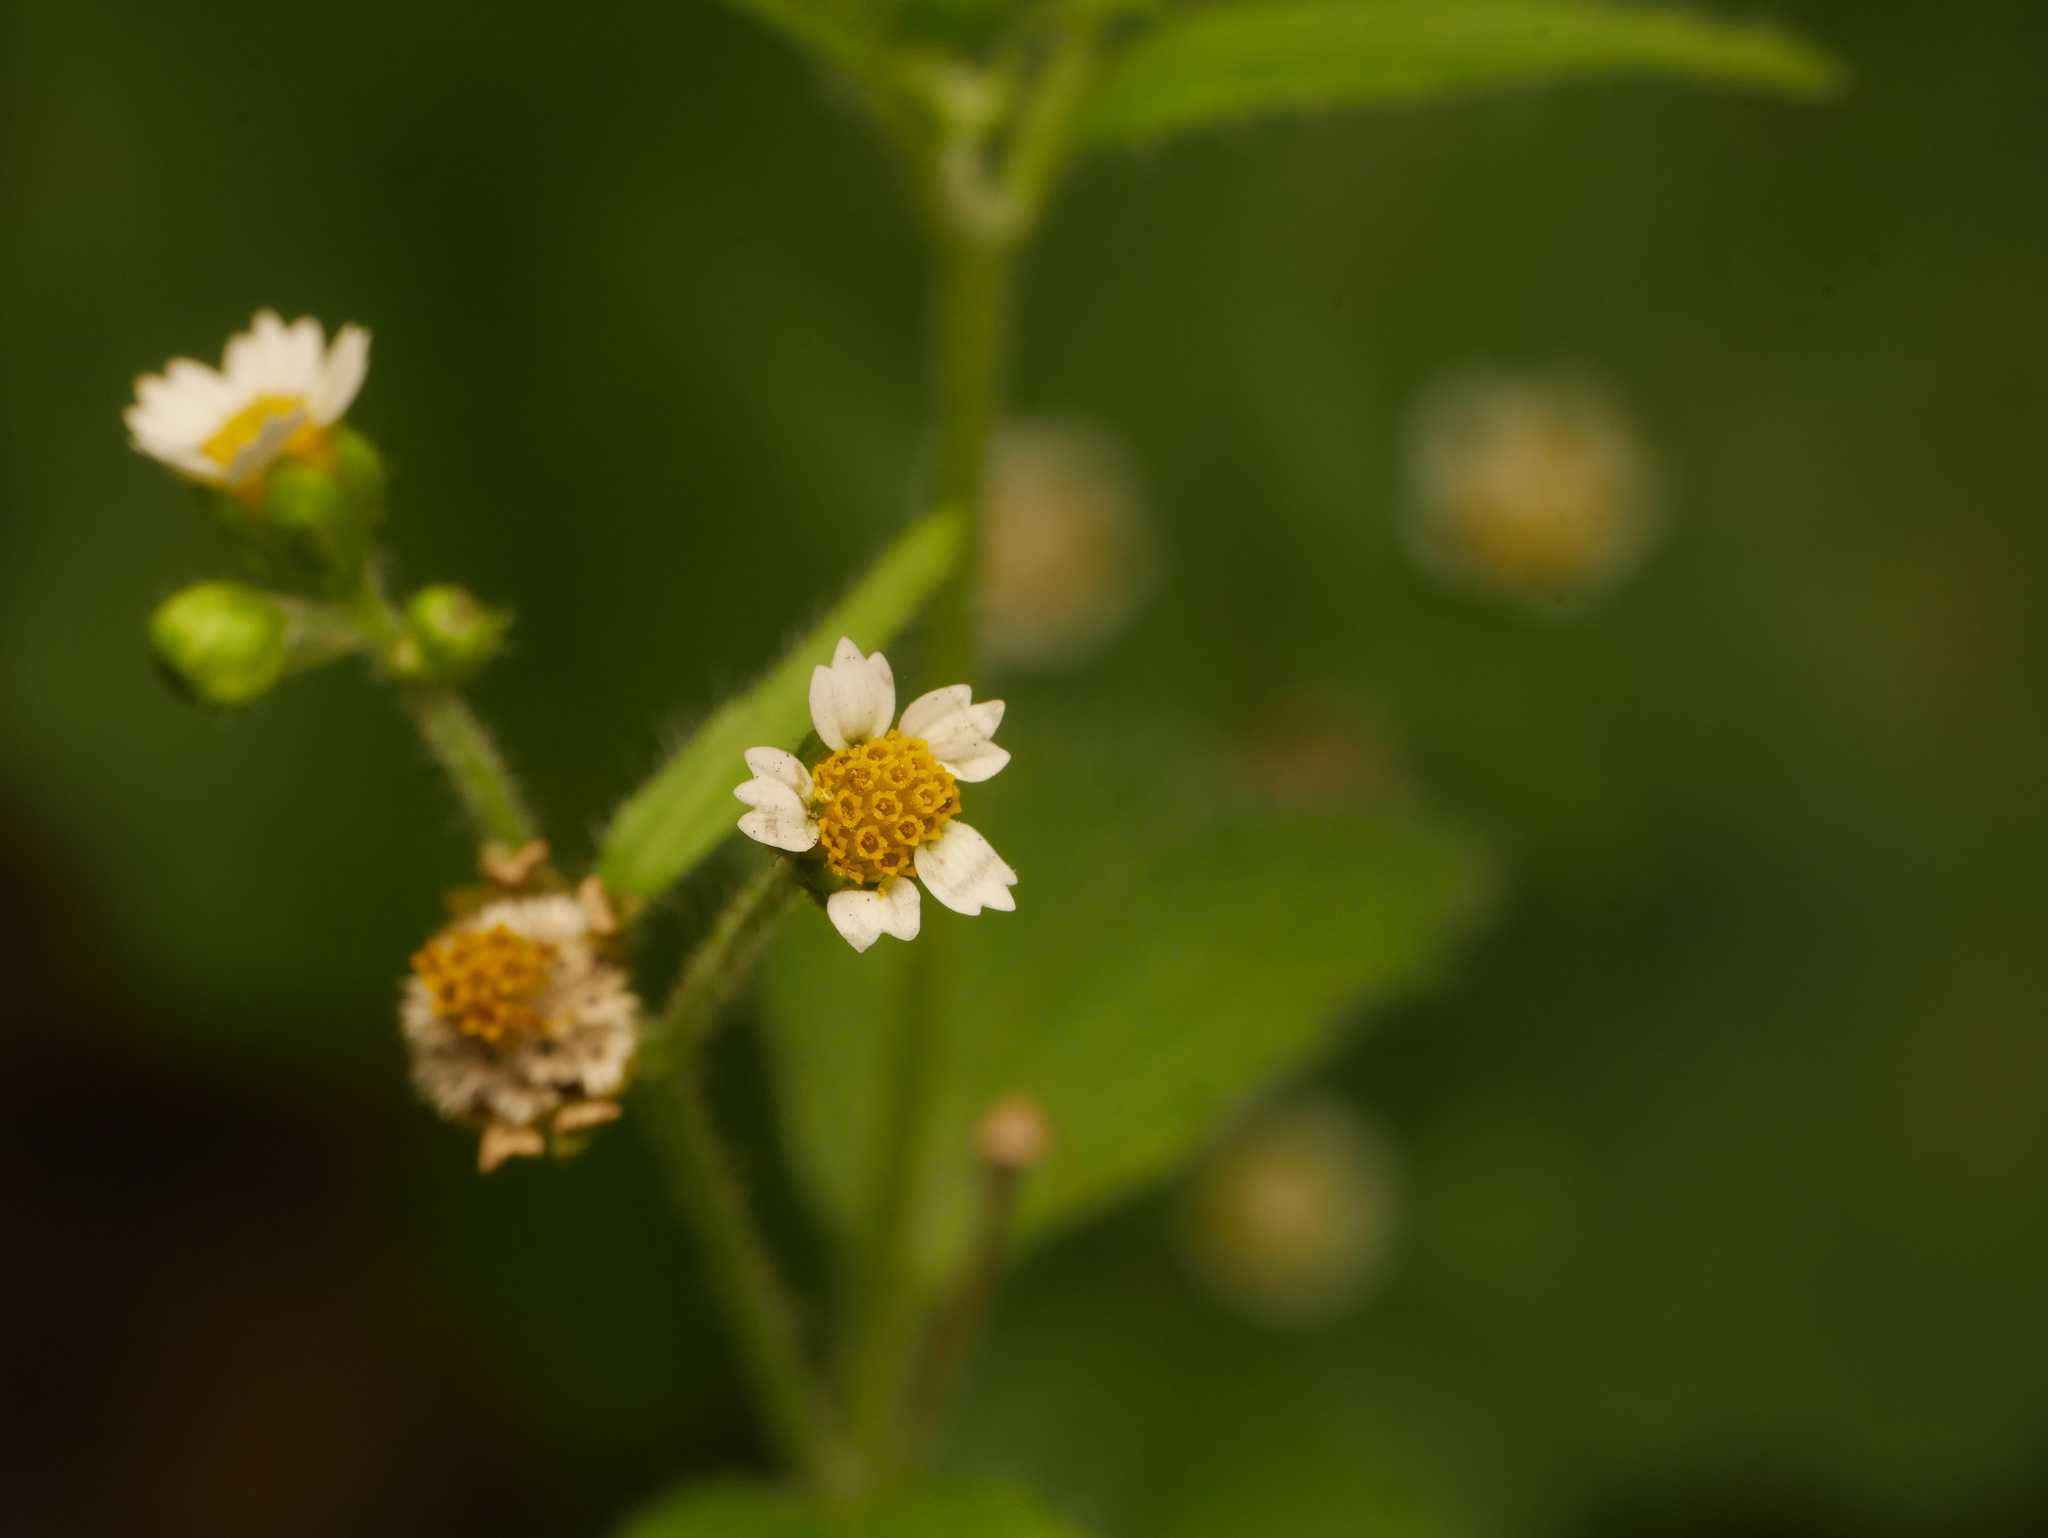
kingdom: Plantae
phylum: Tracheophyta
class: Magnoliopsida
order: Asterales
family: Asteraceae
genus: Galinsoga
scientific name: Galinsoga quadriradiata
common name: Shaggy soldier
